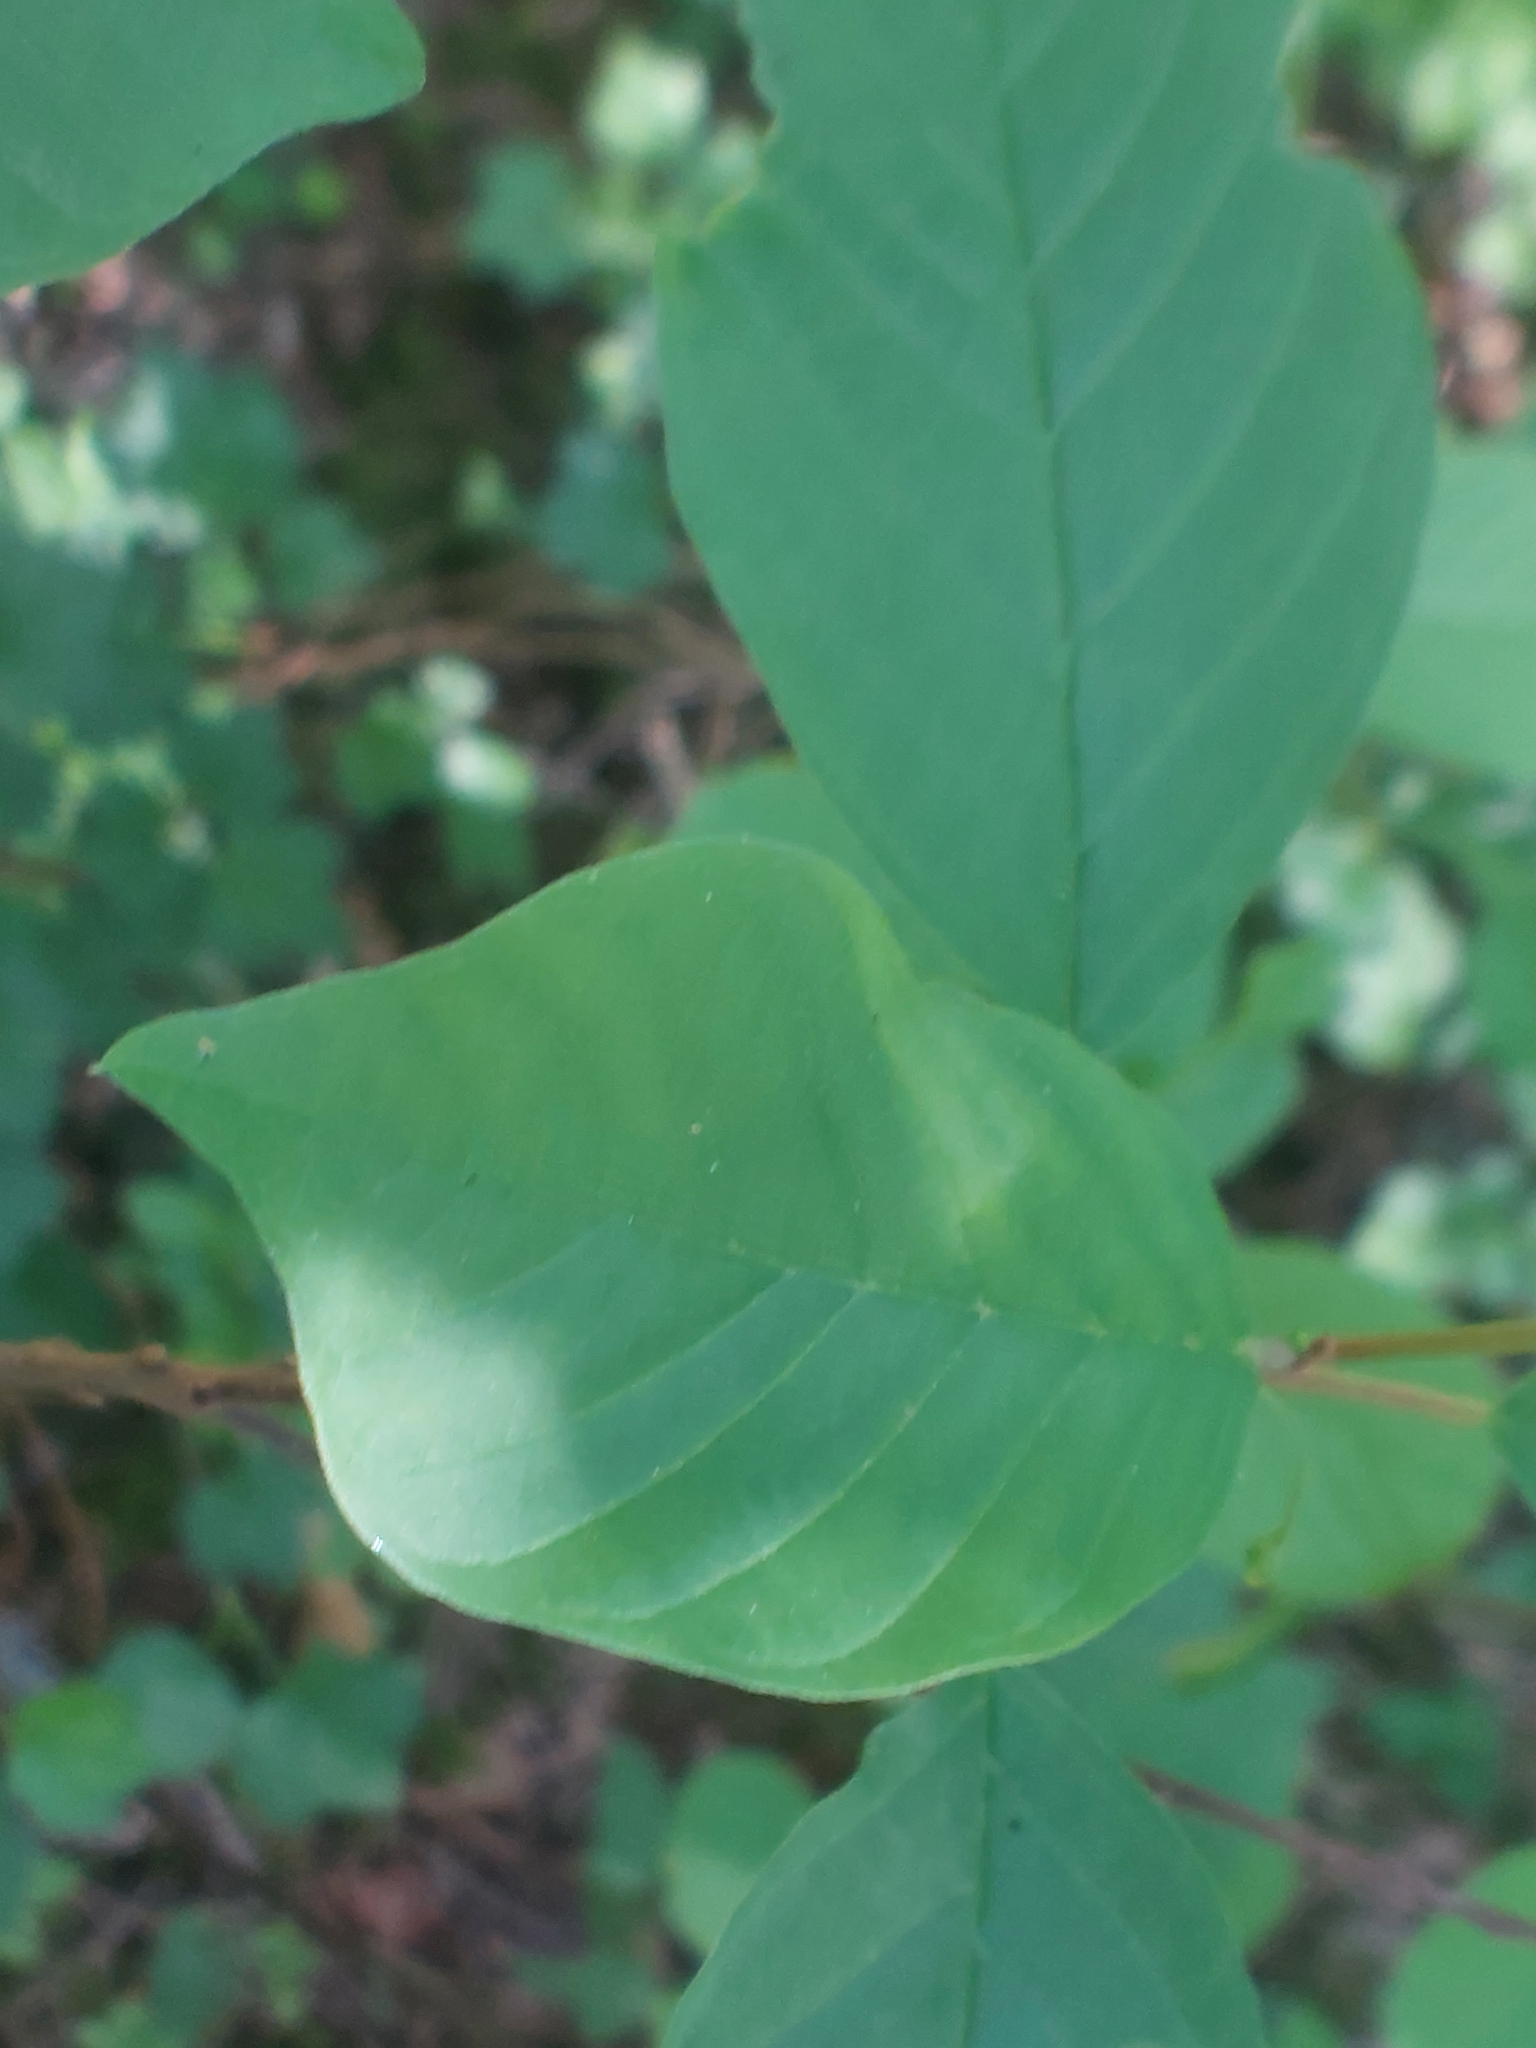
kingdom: Plantae
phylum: Tracheophyta
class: Magnoliopsida
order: Rosales
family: Rhamnaceae
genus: Frangula
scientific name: Frangula alnus
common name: Alder buckthorn
